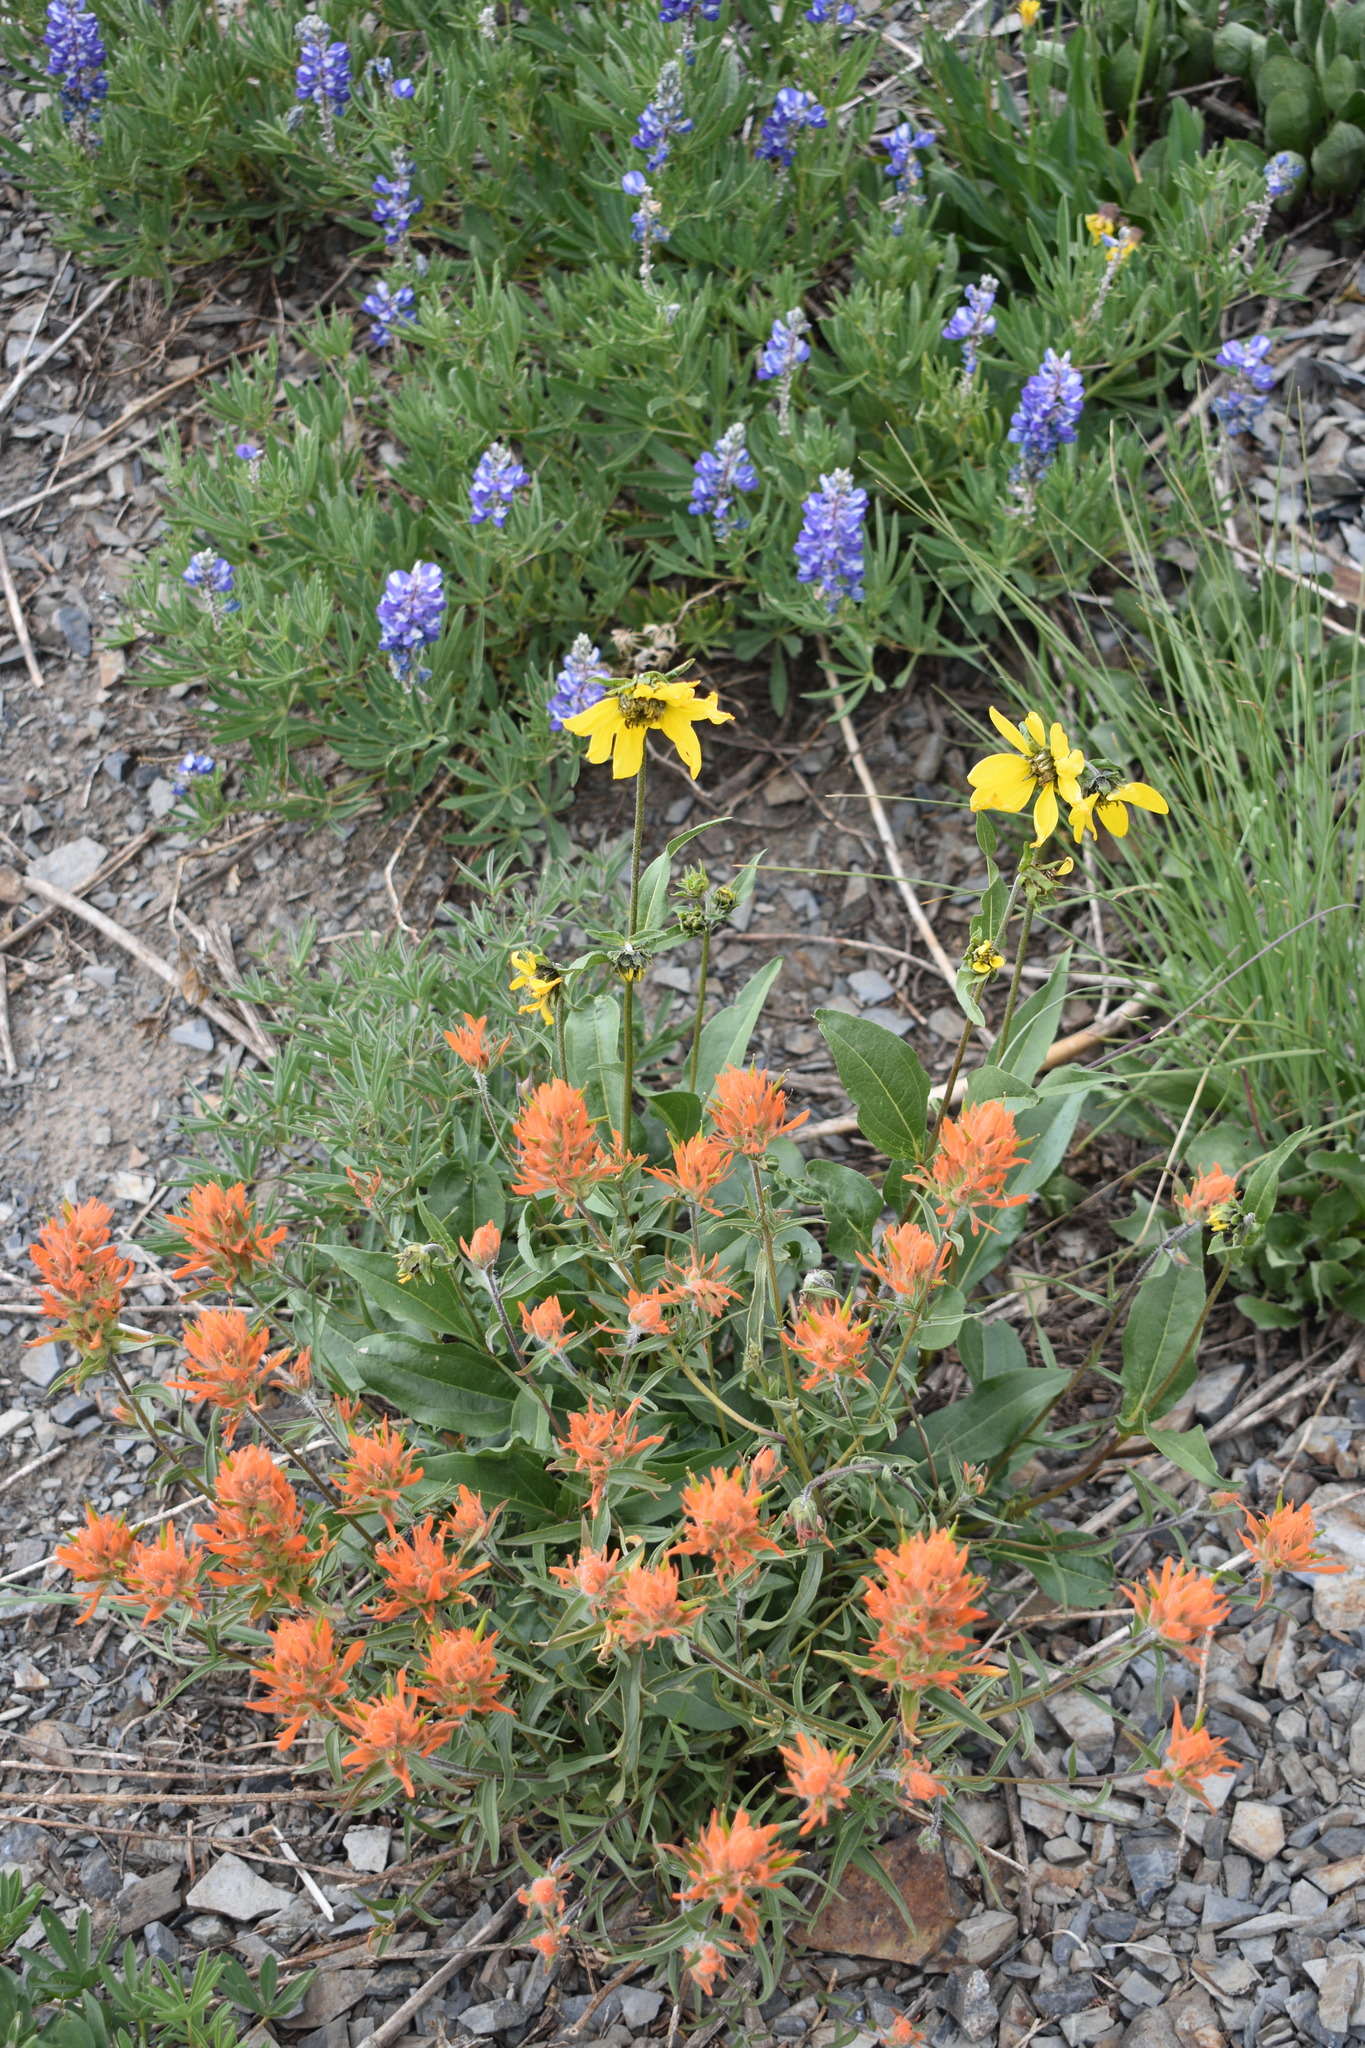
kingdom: Plantae
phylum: Tracheophyta
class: Magnoliopsida
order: Lamiales
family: Orobanchaceae
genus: Castilleja
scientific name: Castilleja miniata
